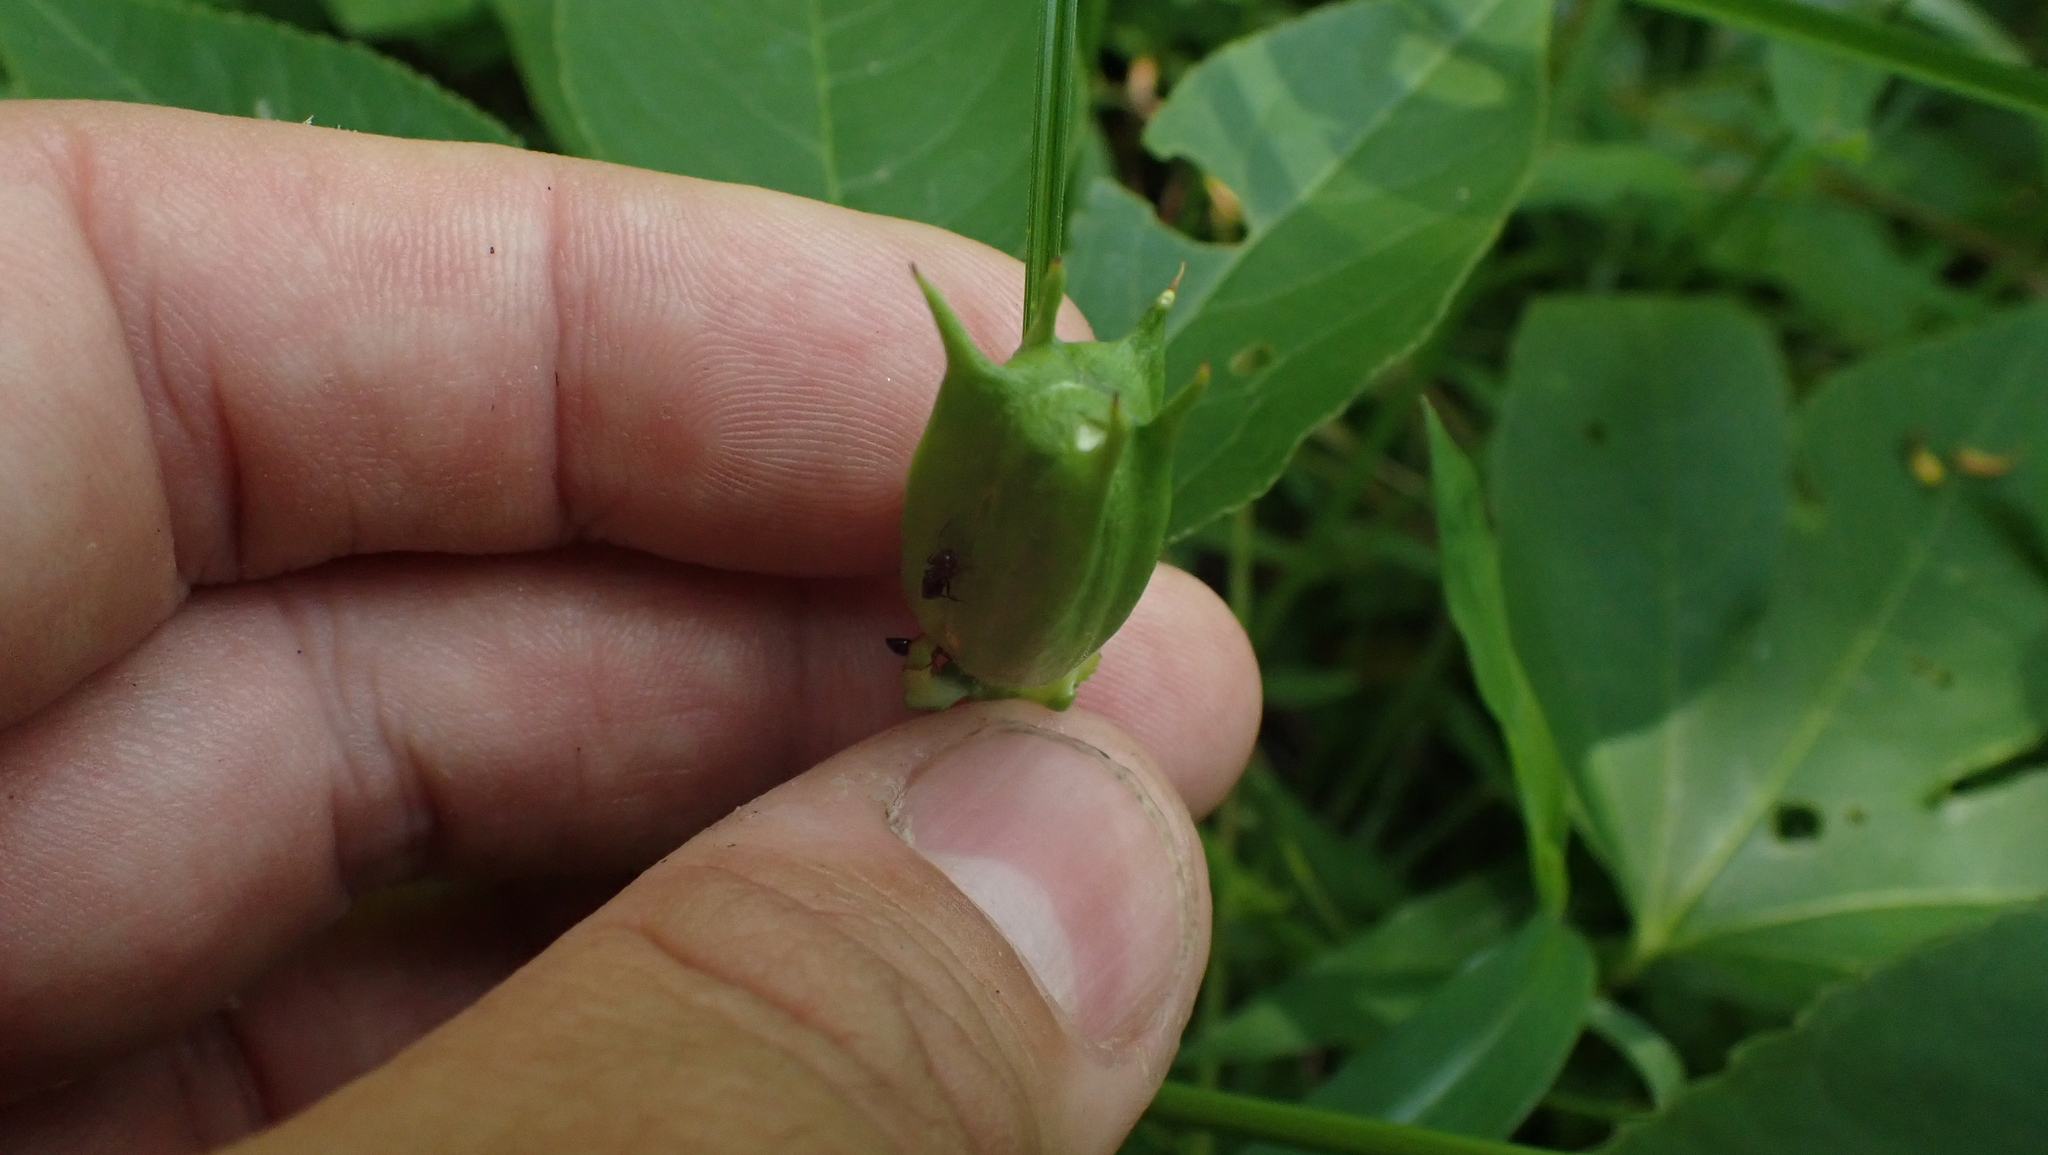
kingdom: Plantae
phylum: Tracheophyta
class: Magnoliopsida
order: Malpighiales
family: Passifloraceae
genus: Passiflora
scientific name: Passiflora incarnata
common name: Apricot-vine
